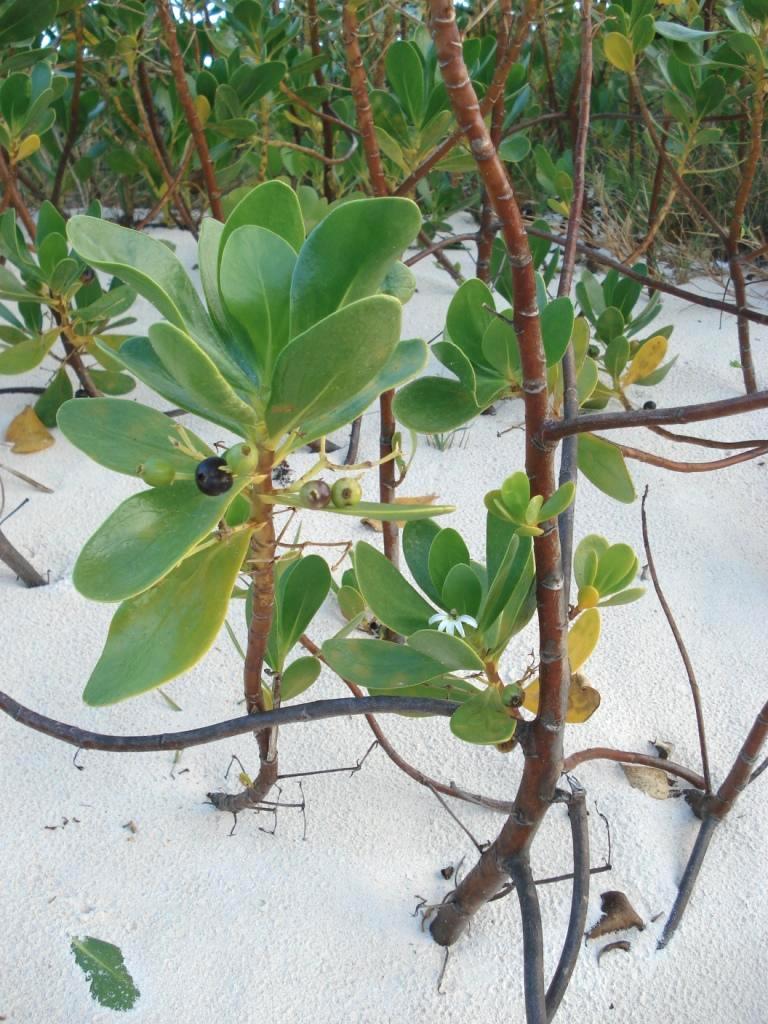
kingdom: Plantae
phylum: Tracheophyta
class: Magnoliopsida
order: Asterales
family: Goodeniaceae
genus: Scaevola
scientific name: Scaevola plumieri
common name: Gull feed
